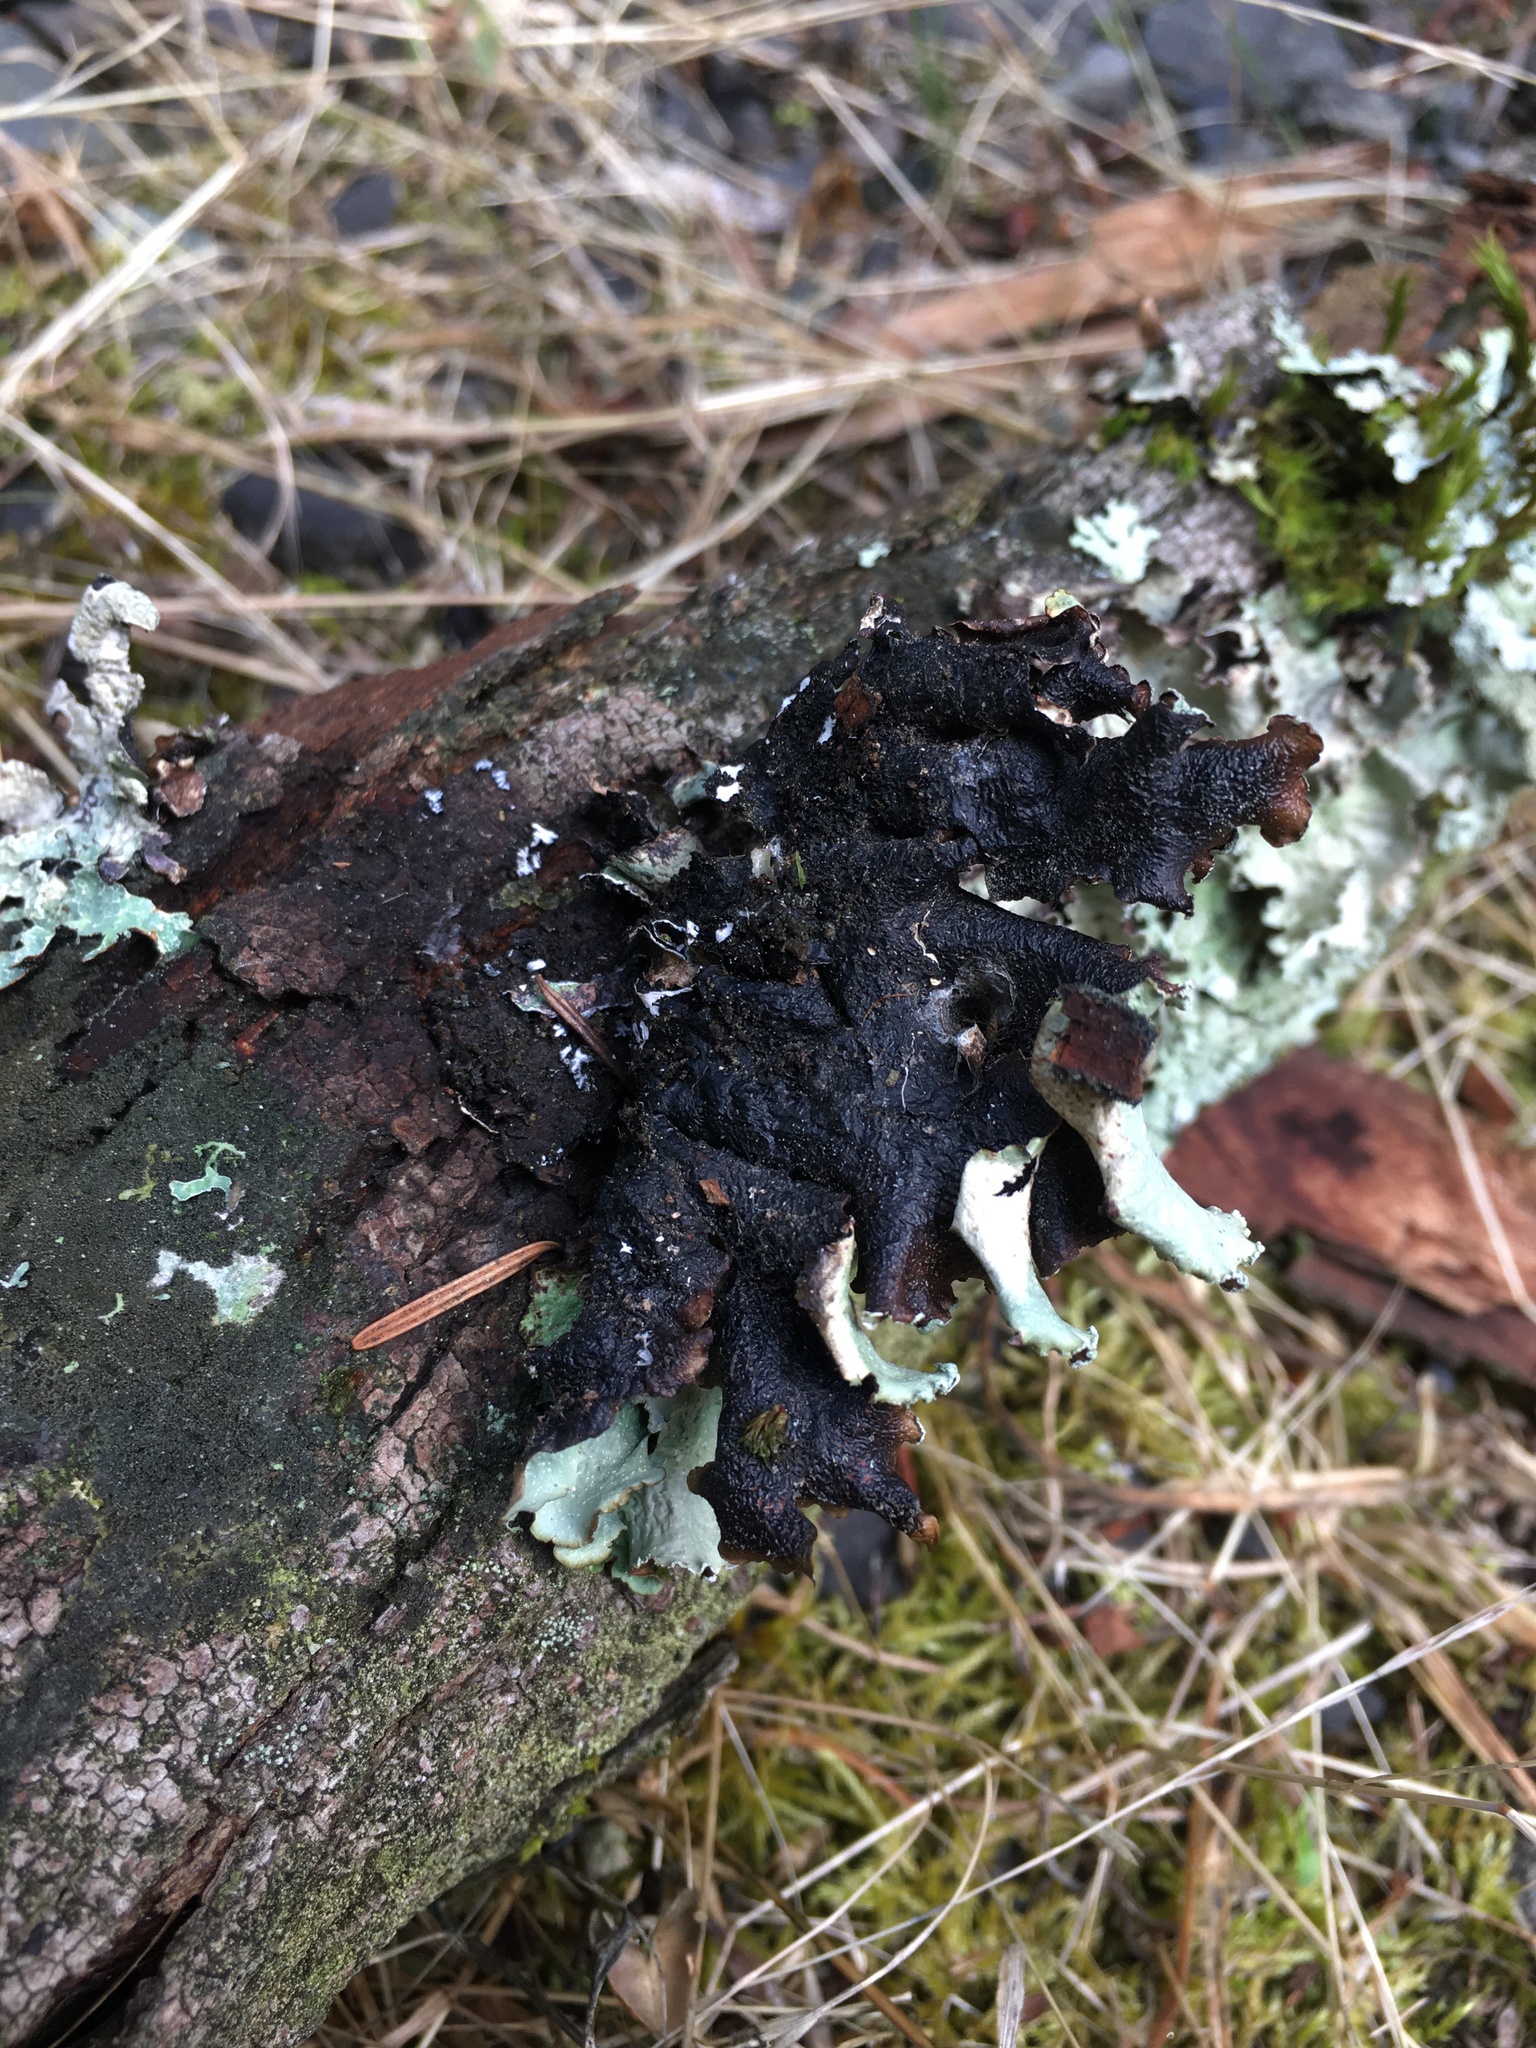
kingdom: Fungi
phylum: Ascomycota
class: Lecanoromycetes
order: Lecanorales
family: Parmeliaceae
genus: Cetrelia
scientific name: Cetrelia cetrarioides
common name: Speckled iceland lichen
